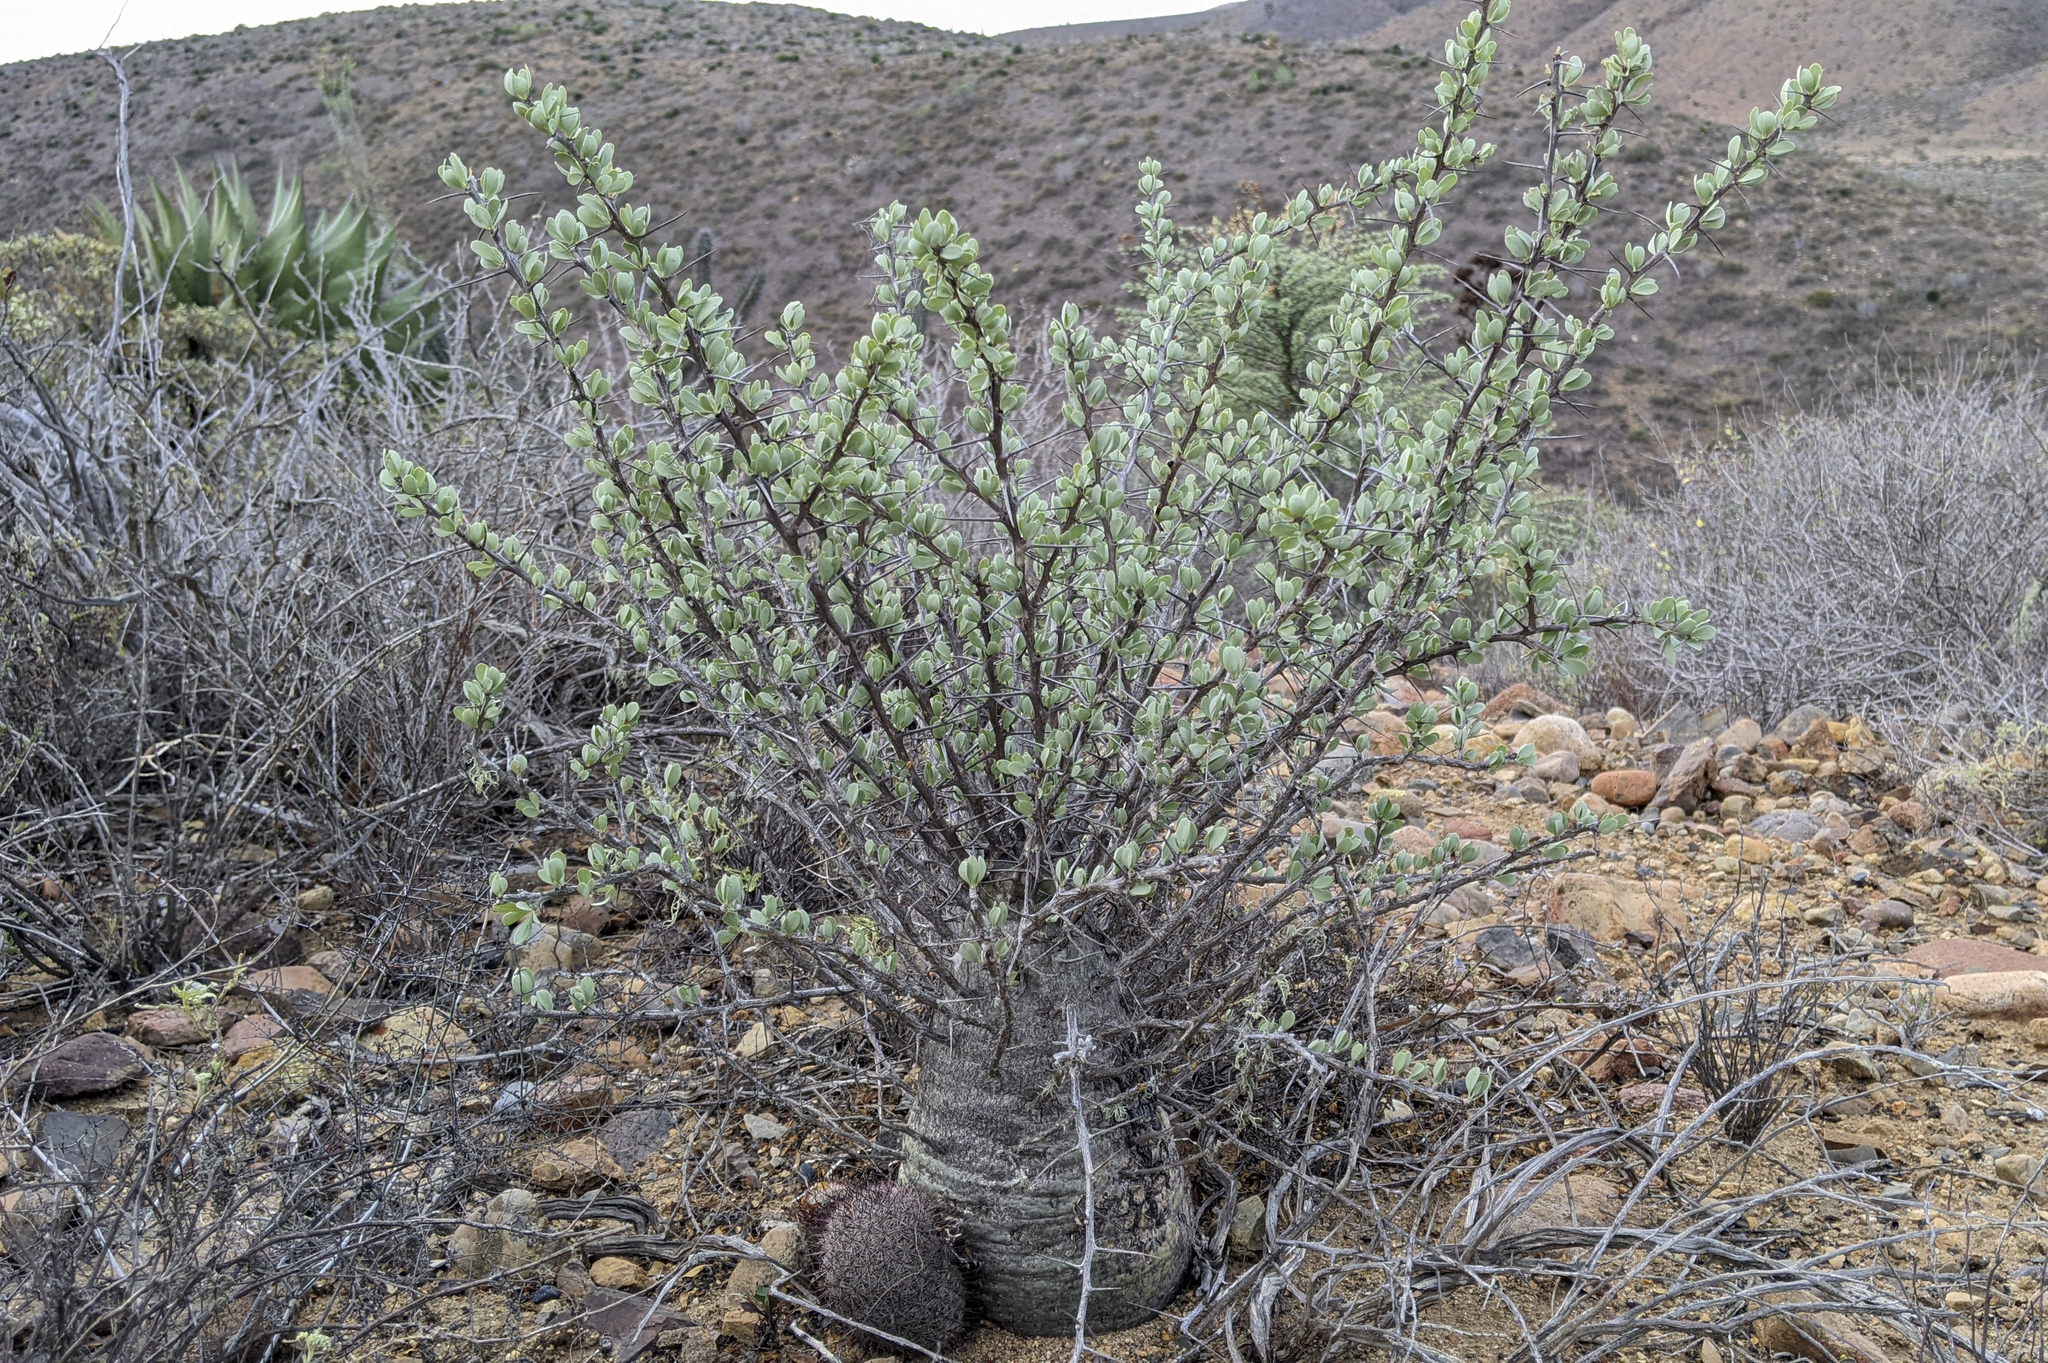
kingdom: Plantae
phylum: Tracheophyta
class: Magnoliopsida
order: Ericales
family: Fouquieriaceae
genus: Fouquieria
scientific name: Fouquieria columnaris
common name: Boojumtree
